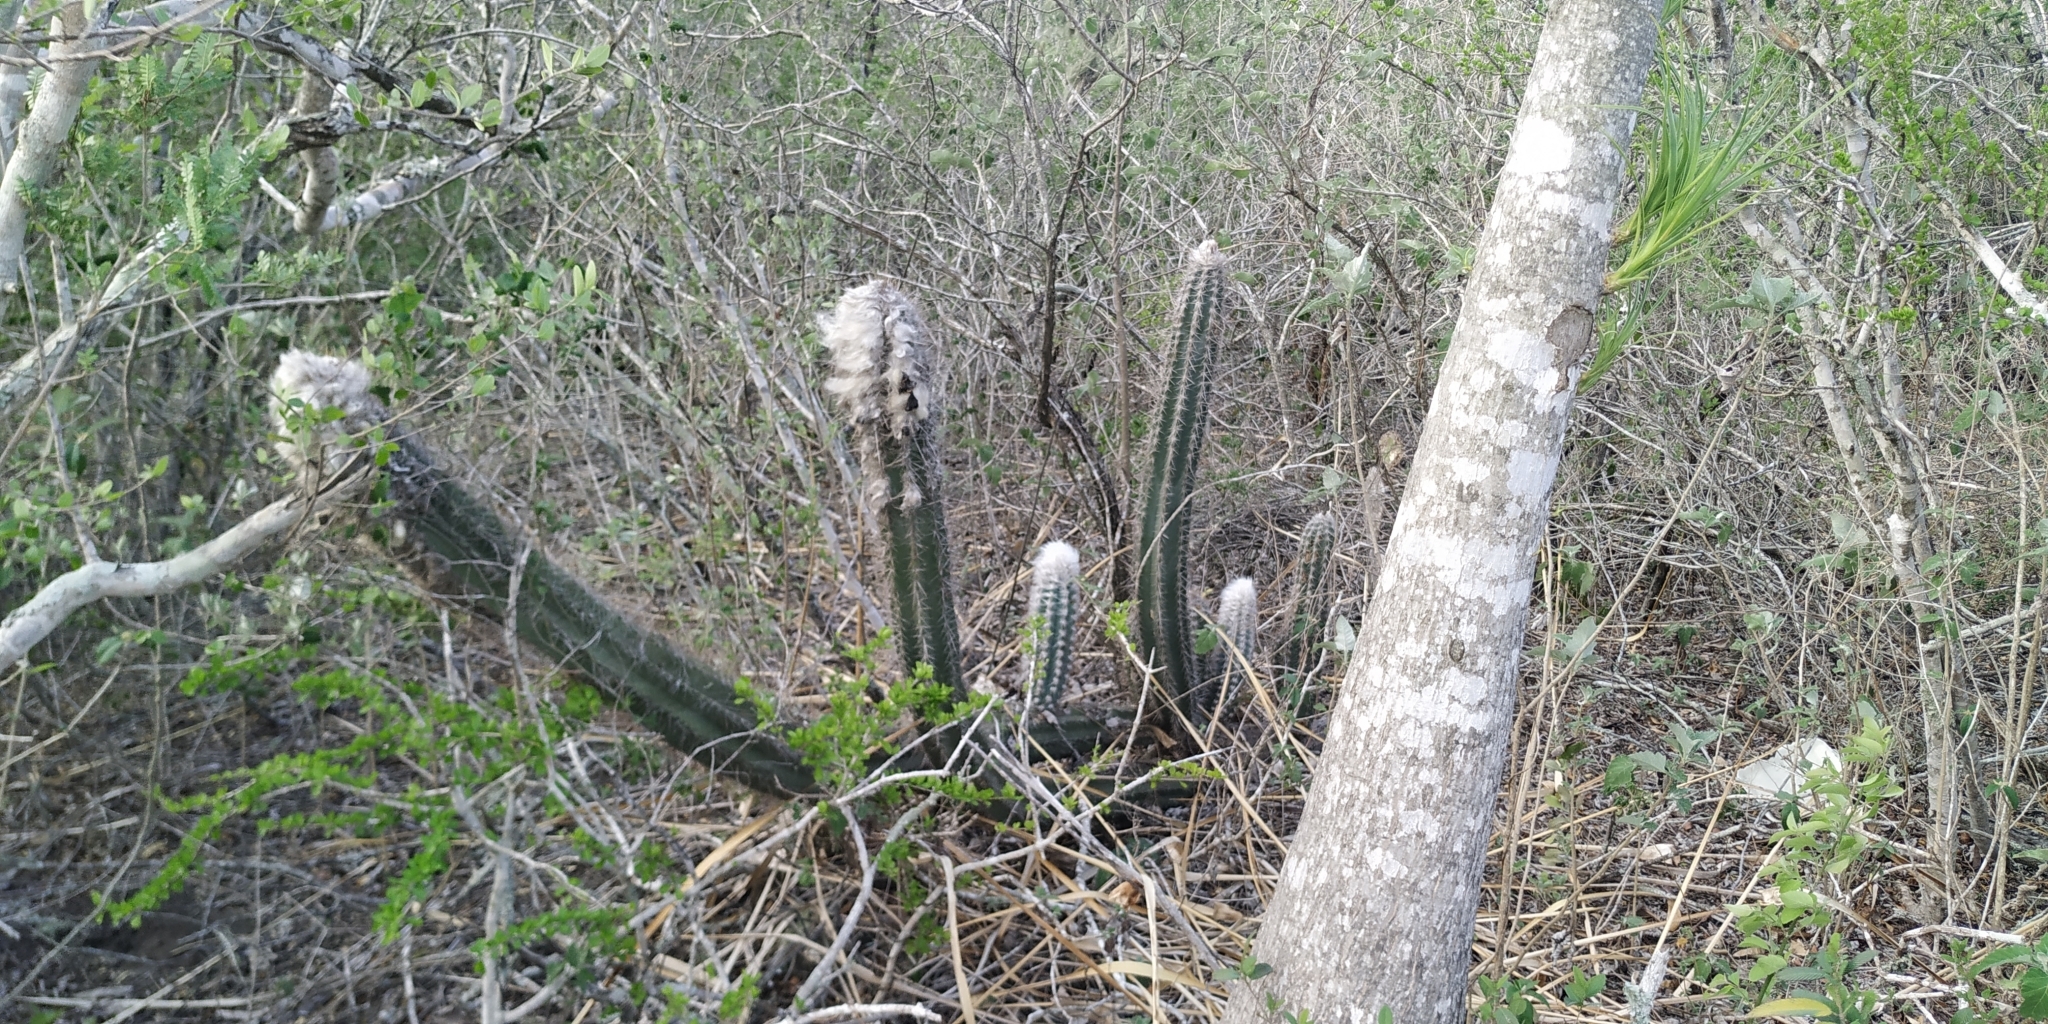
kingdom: Plantae
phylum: Tracheophyta
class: Magnoliopsida
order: Caryophyllales
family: Cactaceae
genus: Pilosocereus
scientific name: Pilosocereus leucocephalus
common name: Old man cactus
